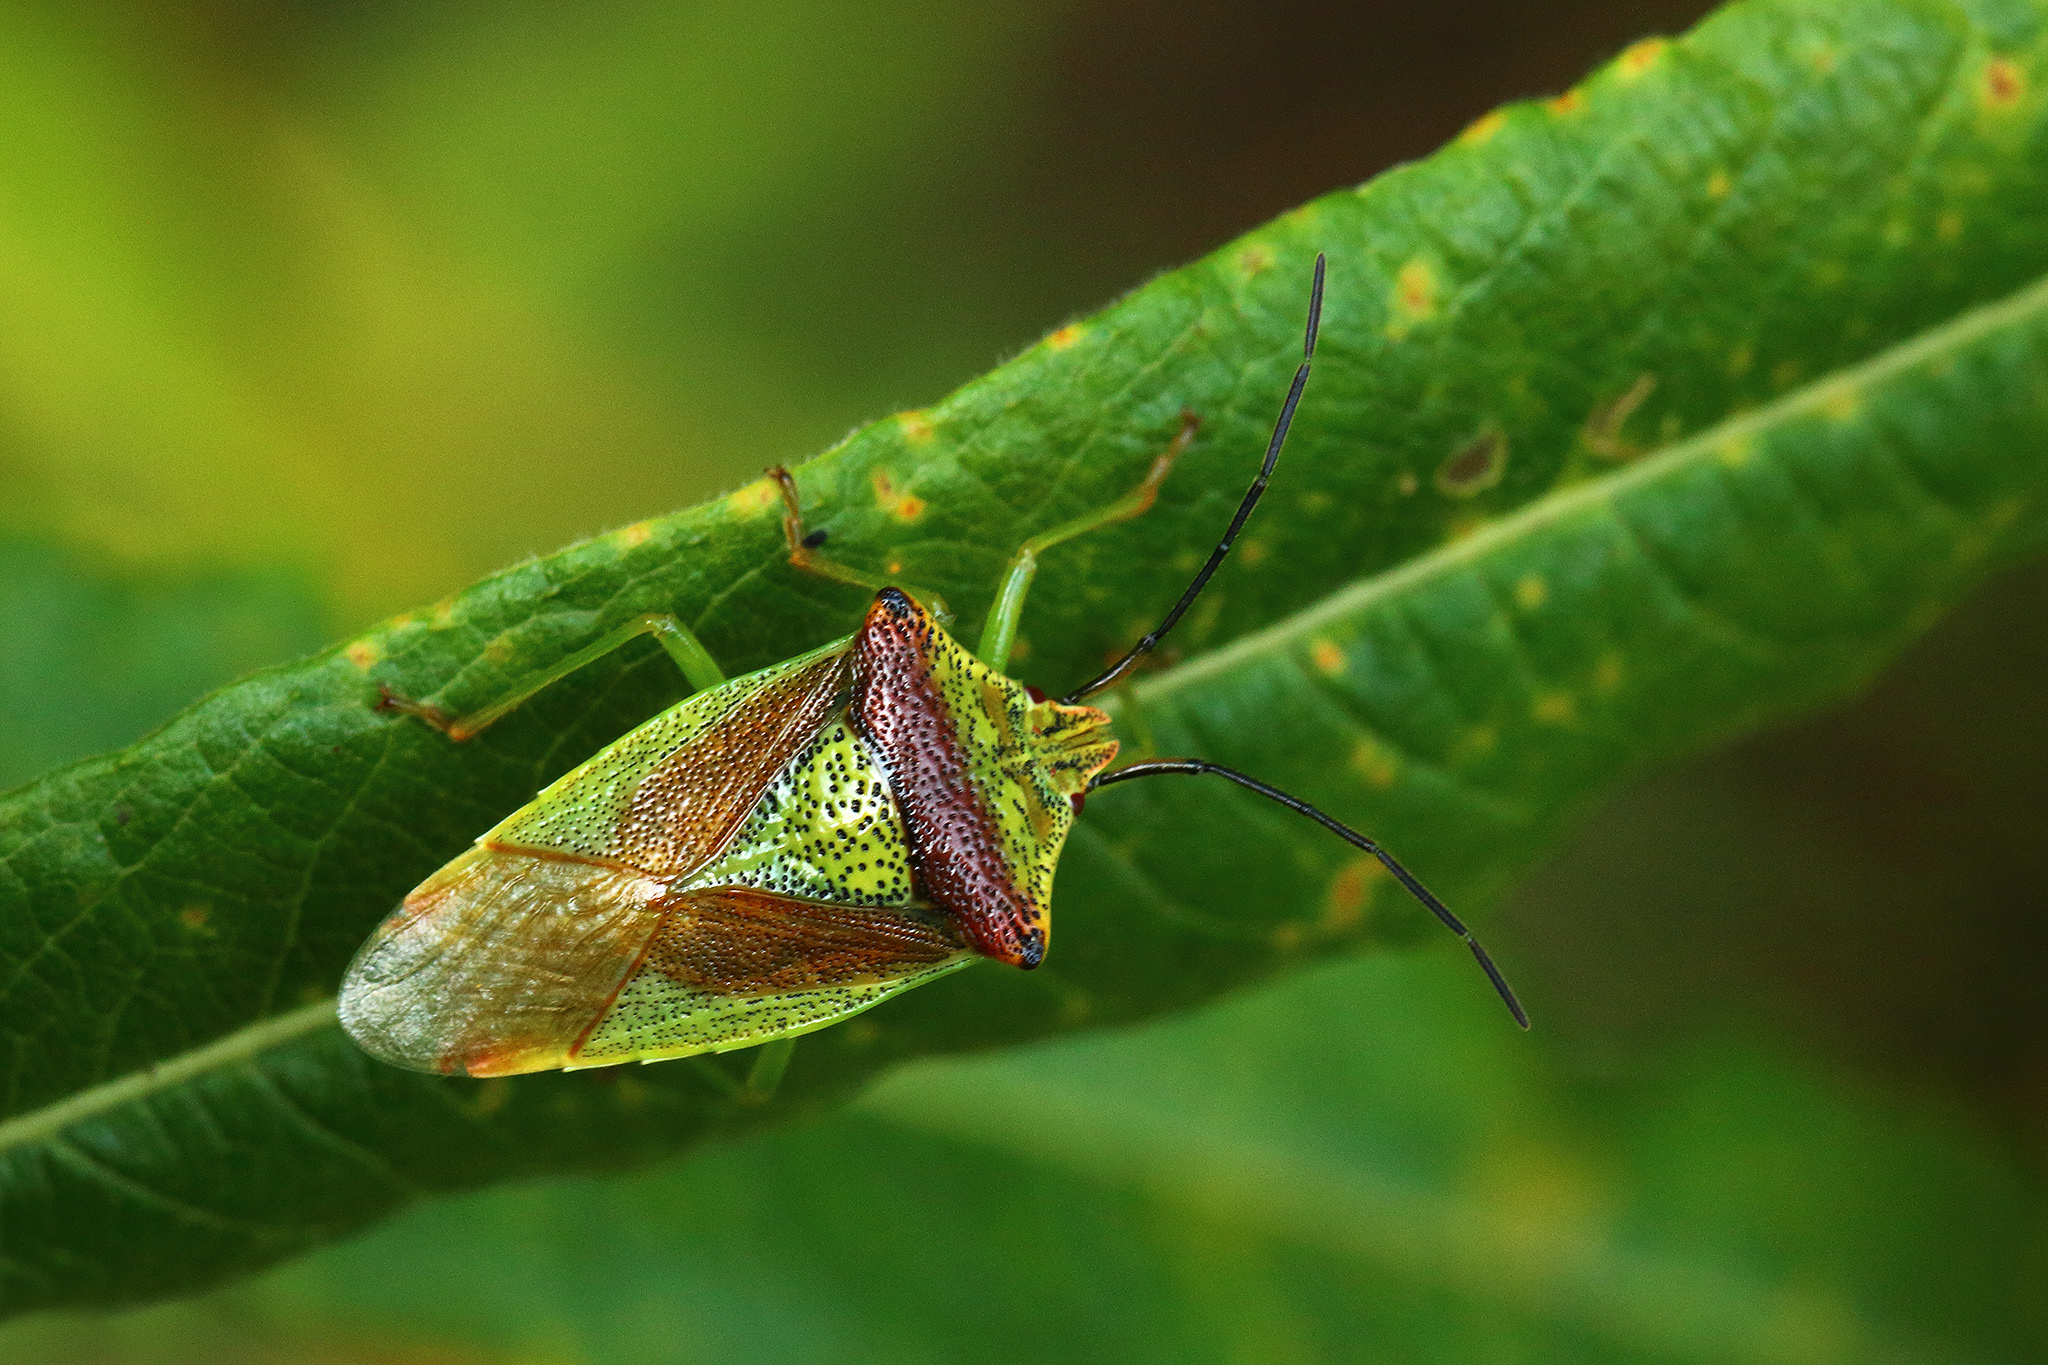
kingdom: Animalia
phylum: Arthropoda
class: Insecta
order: Hemiptera
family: Acanthosomatidae
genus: Acanthosoma
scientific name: Acanthosoma haemorrhoidale
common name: Hawthorn shieldbug
